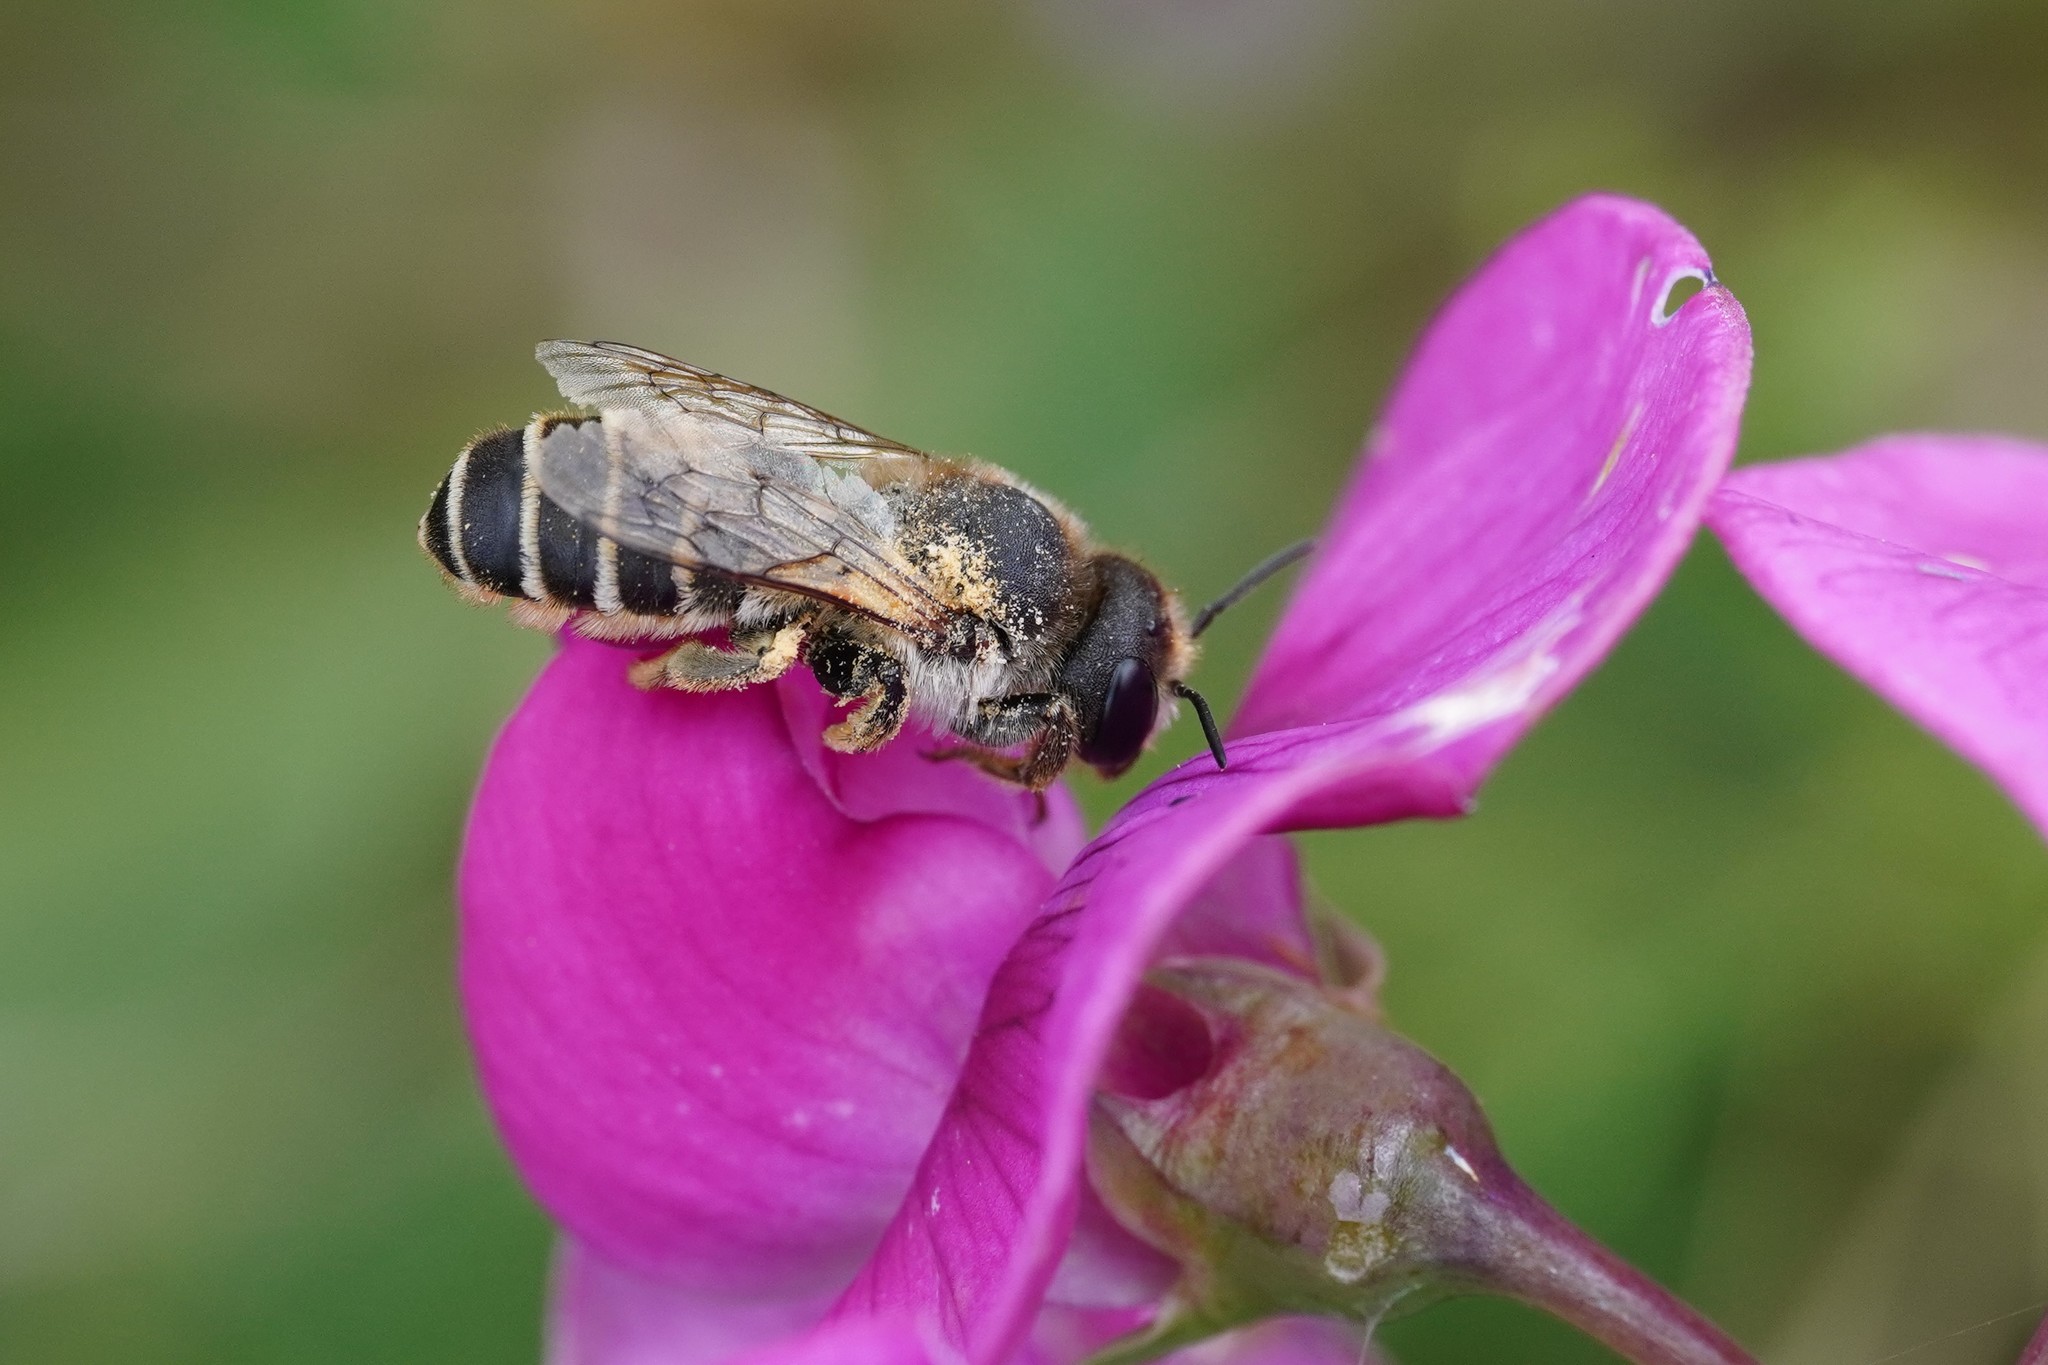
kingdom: Animalia
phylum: Arthropoda
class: Insecta
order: Hymenoptera
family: Megachilidae
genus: Megachile
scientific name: Megachile ericetorum
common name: Leafcutter bee
